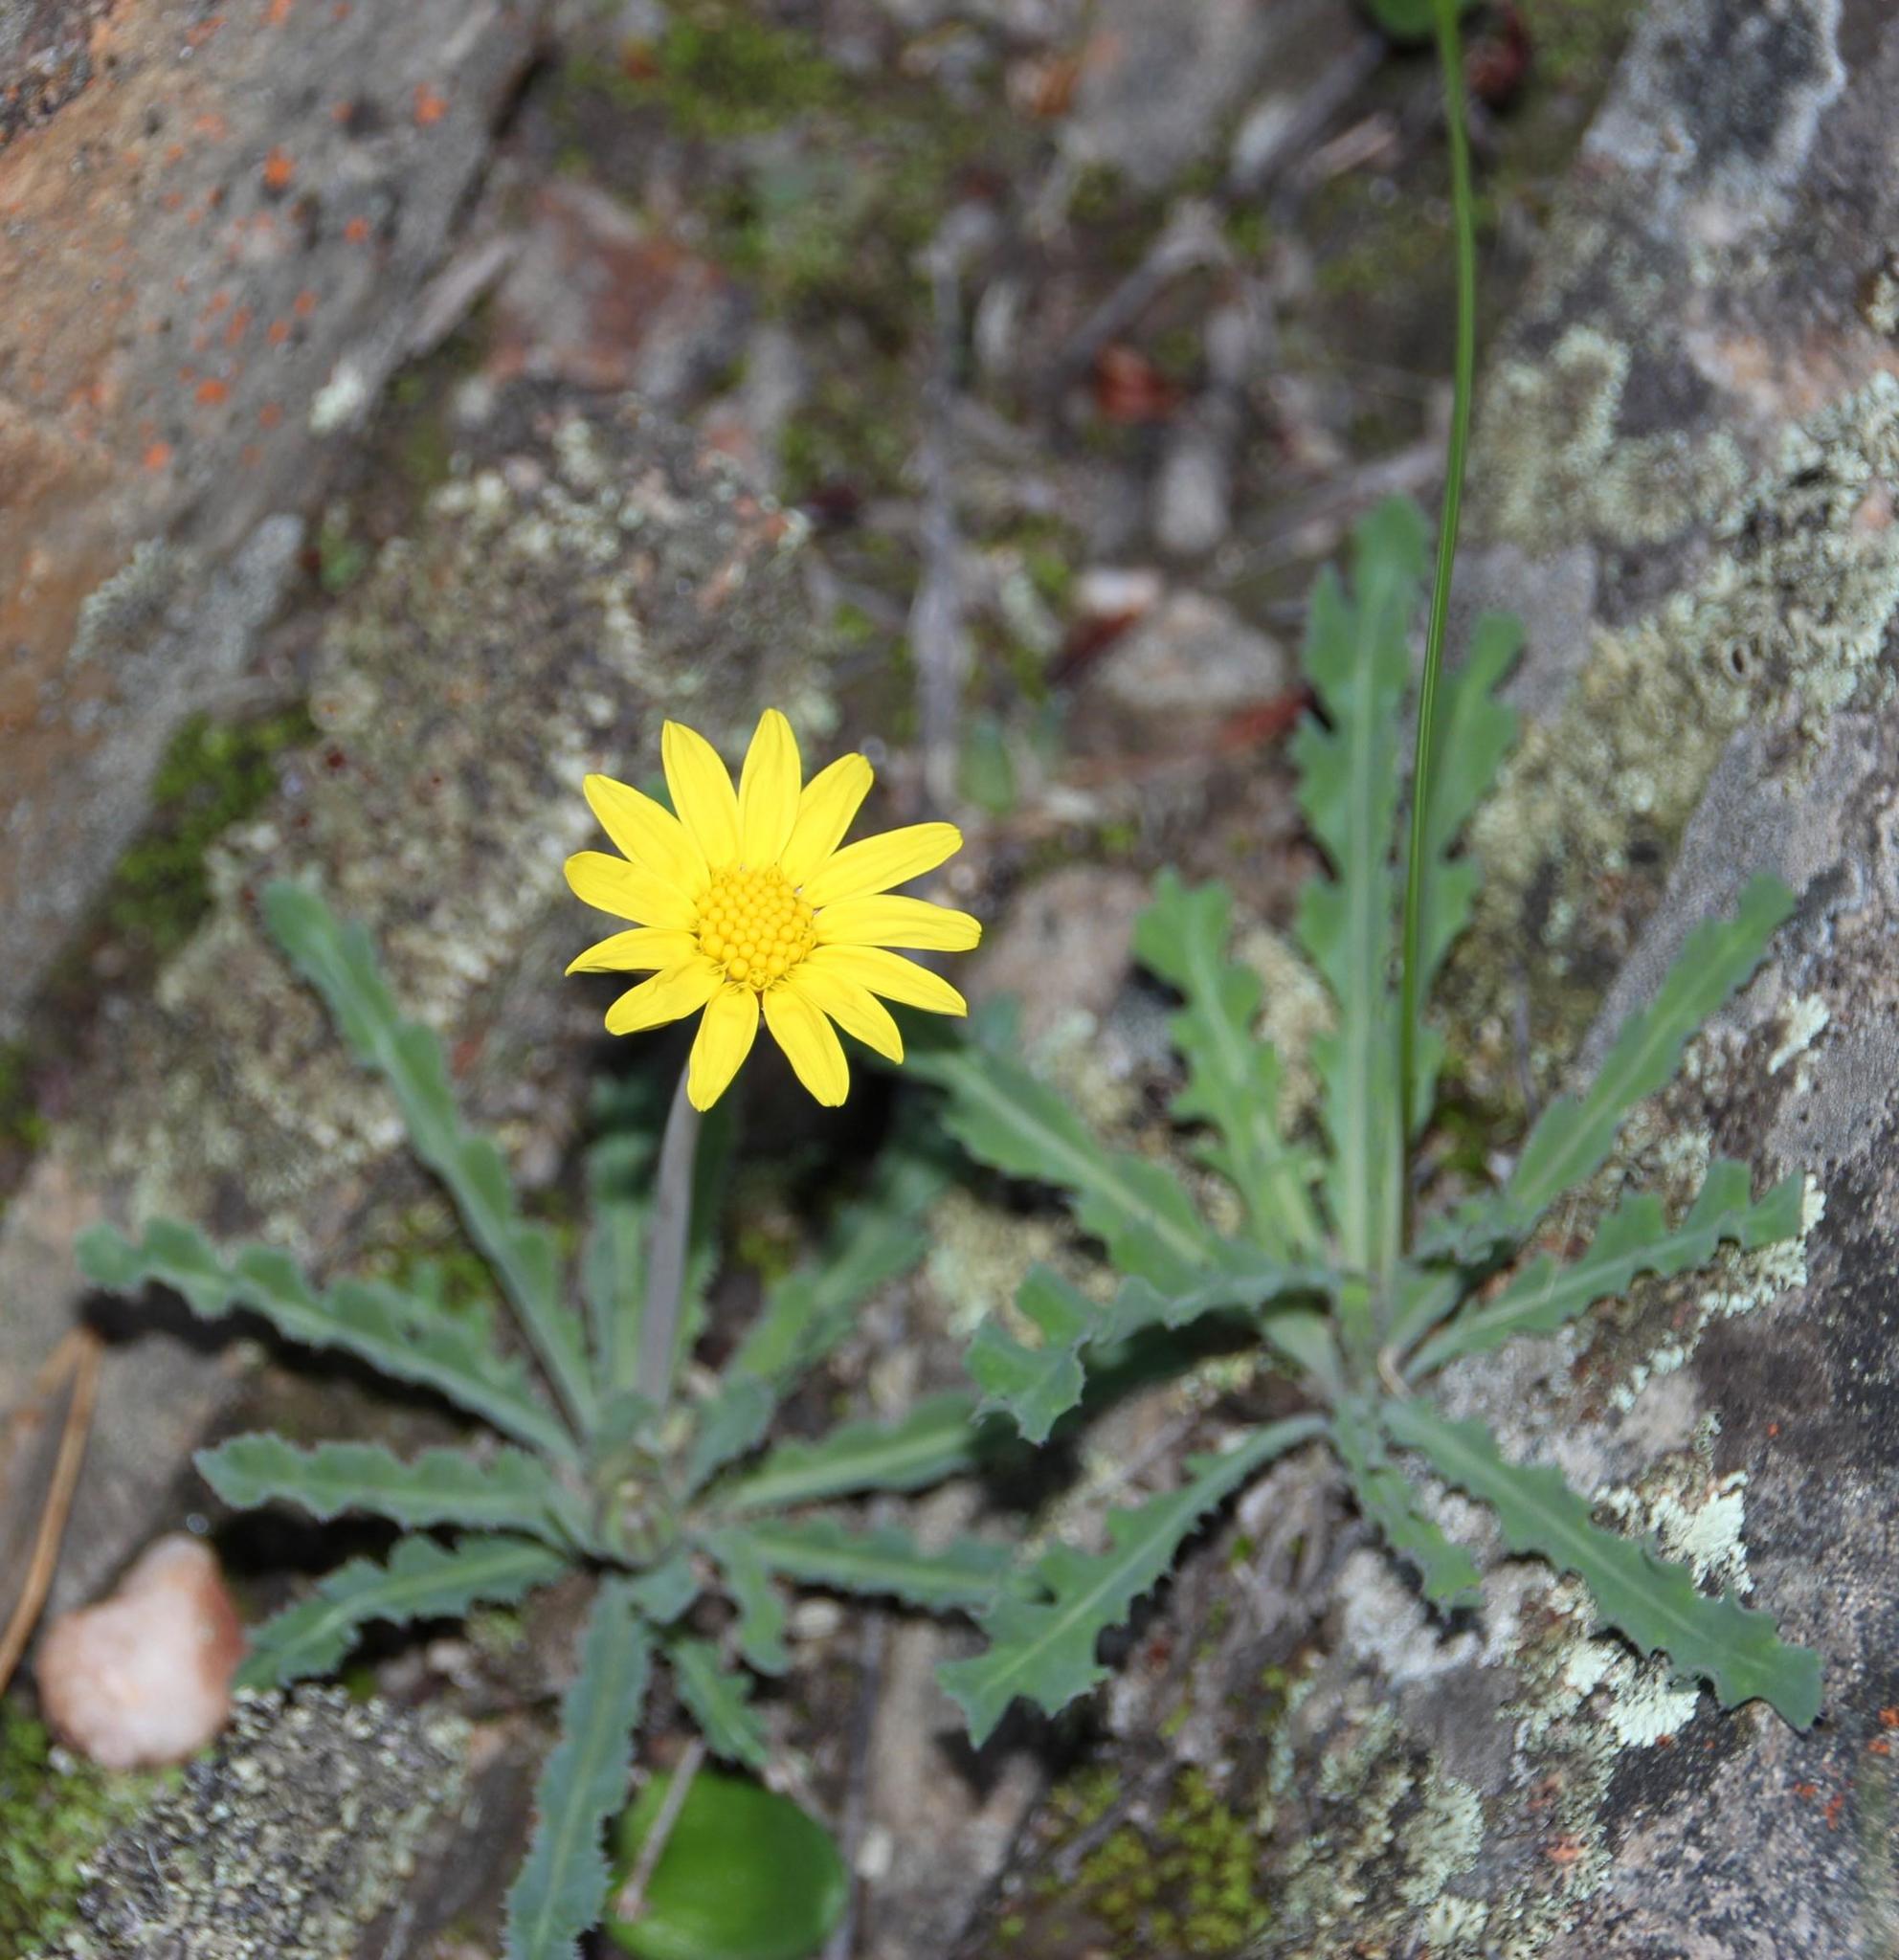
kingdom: Plantae
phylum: Tracheophyta
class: Magnoliopsida
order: Asterales
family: Asteraceae
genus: Othonna
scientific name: Othonna auriculifolia
